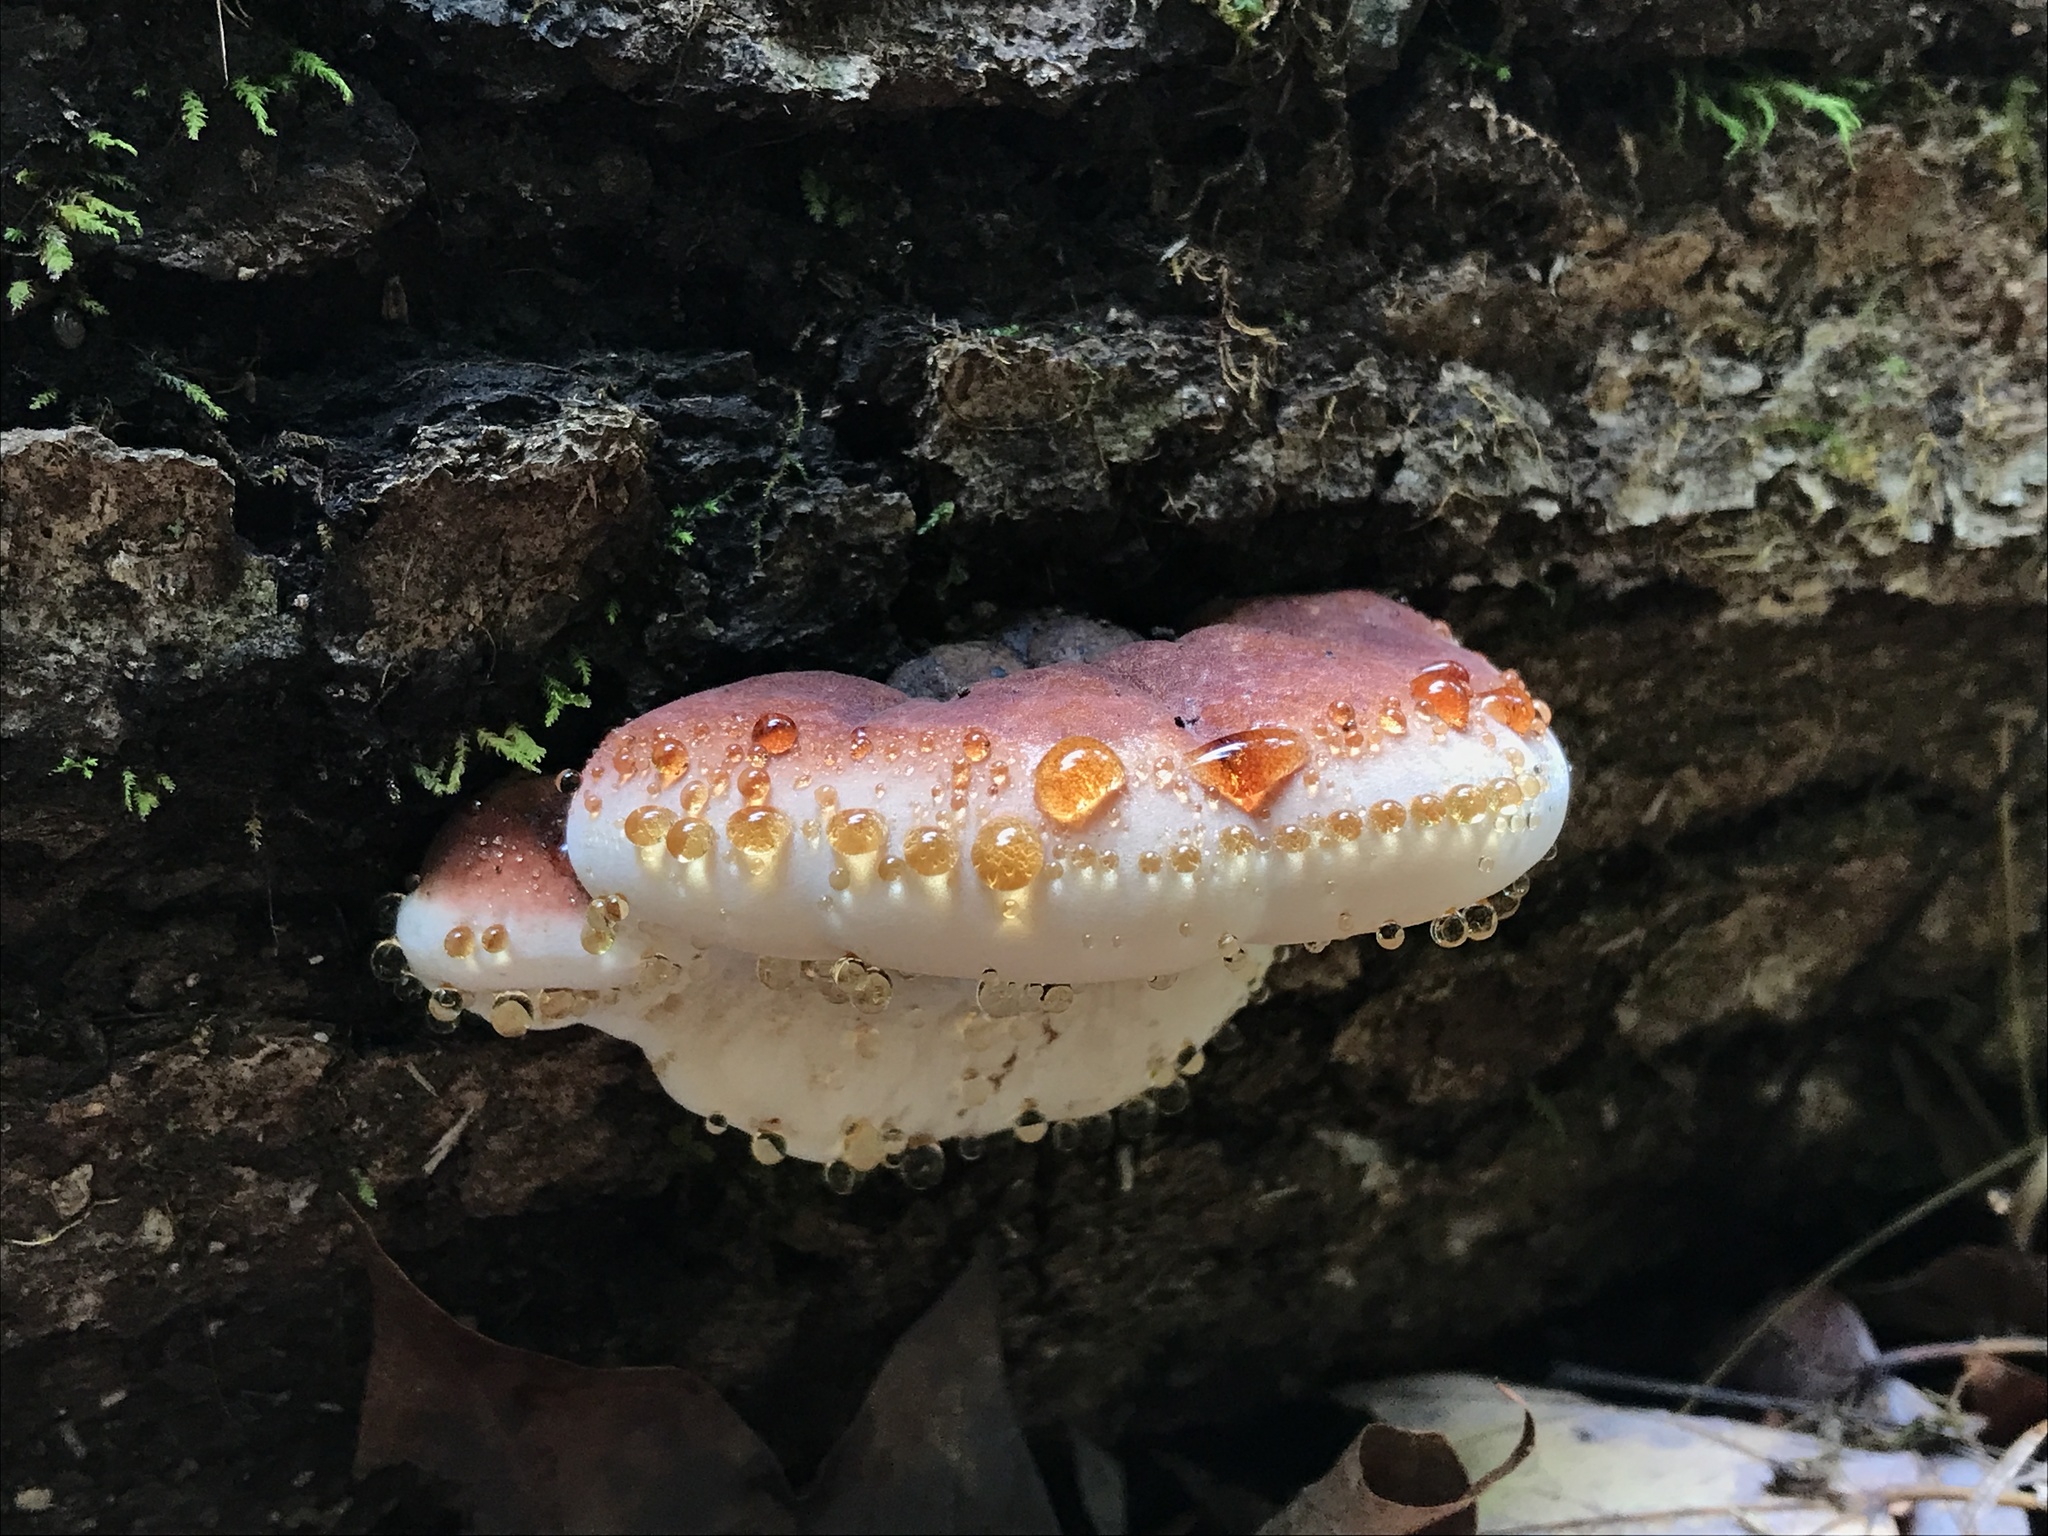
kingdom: Fungi
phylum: Basidiomycota
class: Agaricomycetes
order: Polyporales
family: Ischnodermataceae
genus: Ischnoderma
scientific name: Ischnoderma resinosum
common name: Resinous polypore
